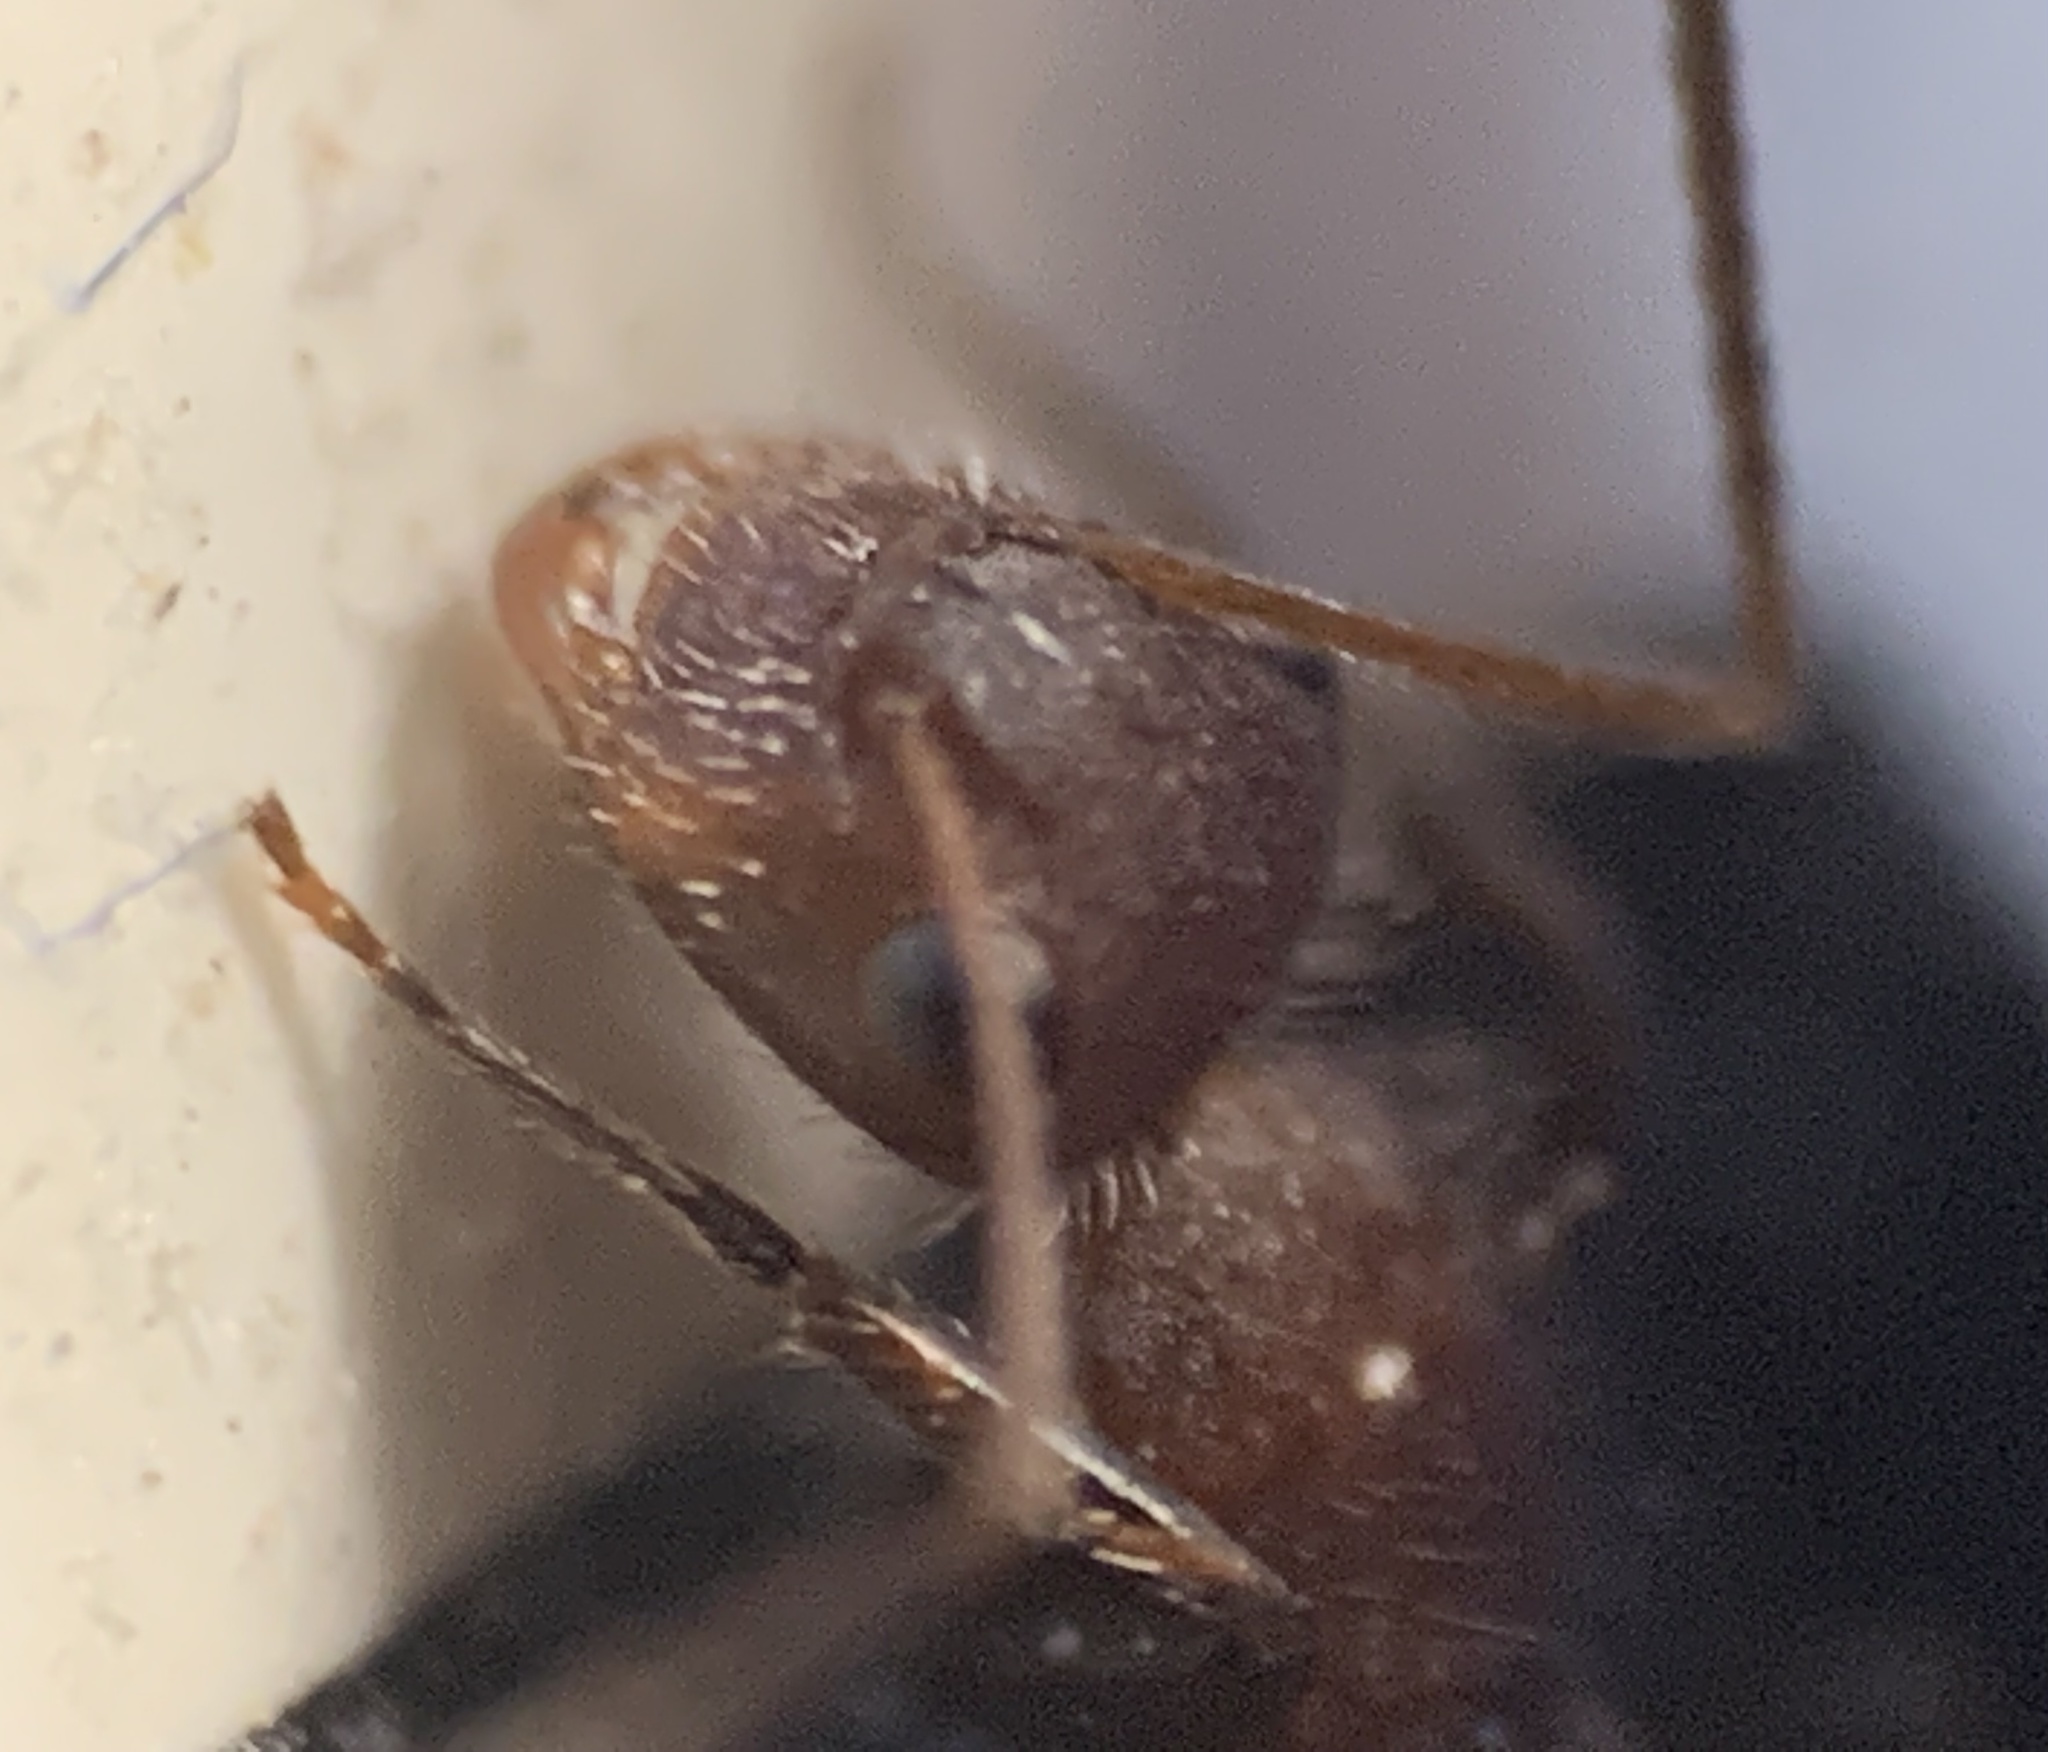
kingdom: Animalia
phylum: Arthropoda
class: Insecta
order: Hymenoptera
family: Formicidae
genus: Camponotus
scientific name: Camponotus planatus
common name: Compact carpenter ant
